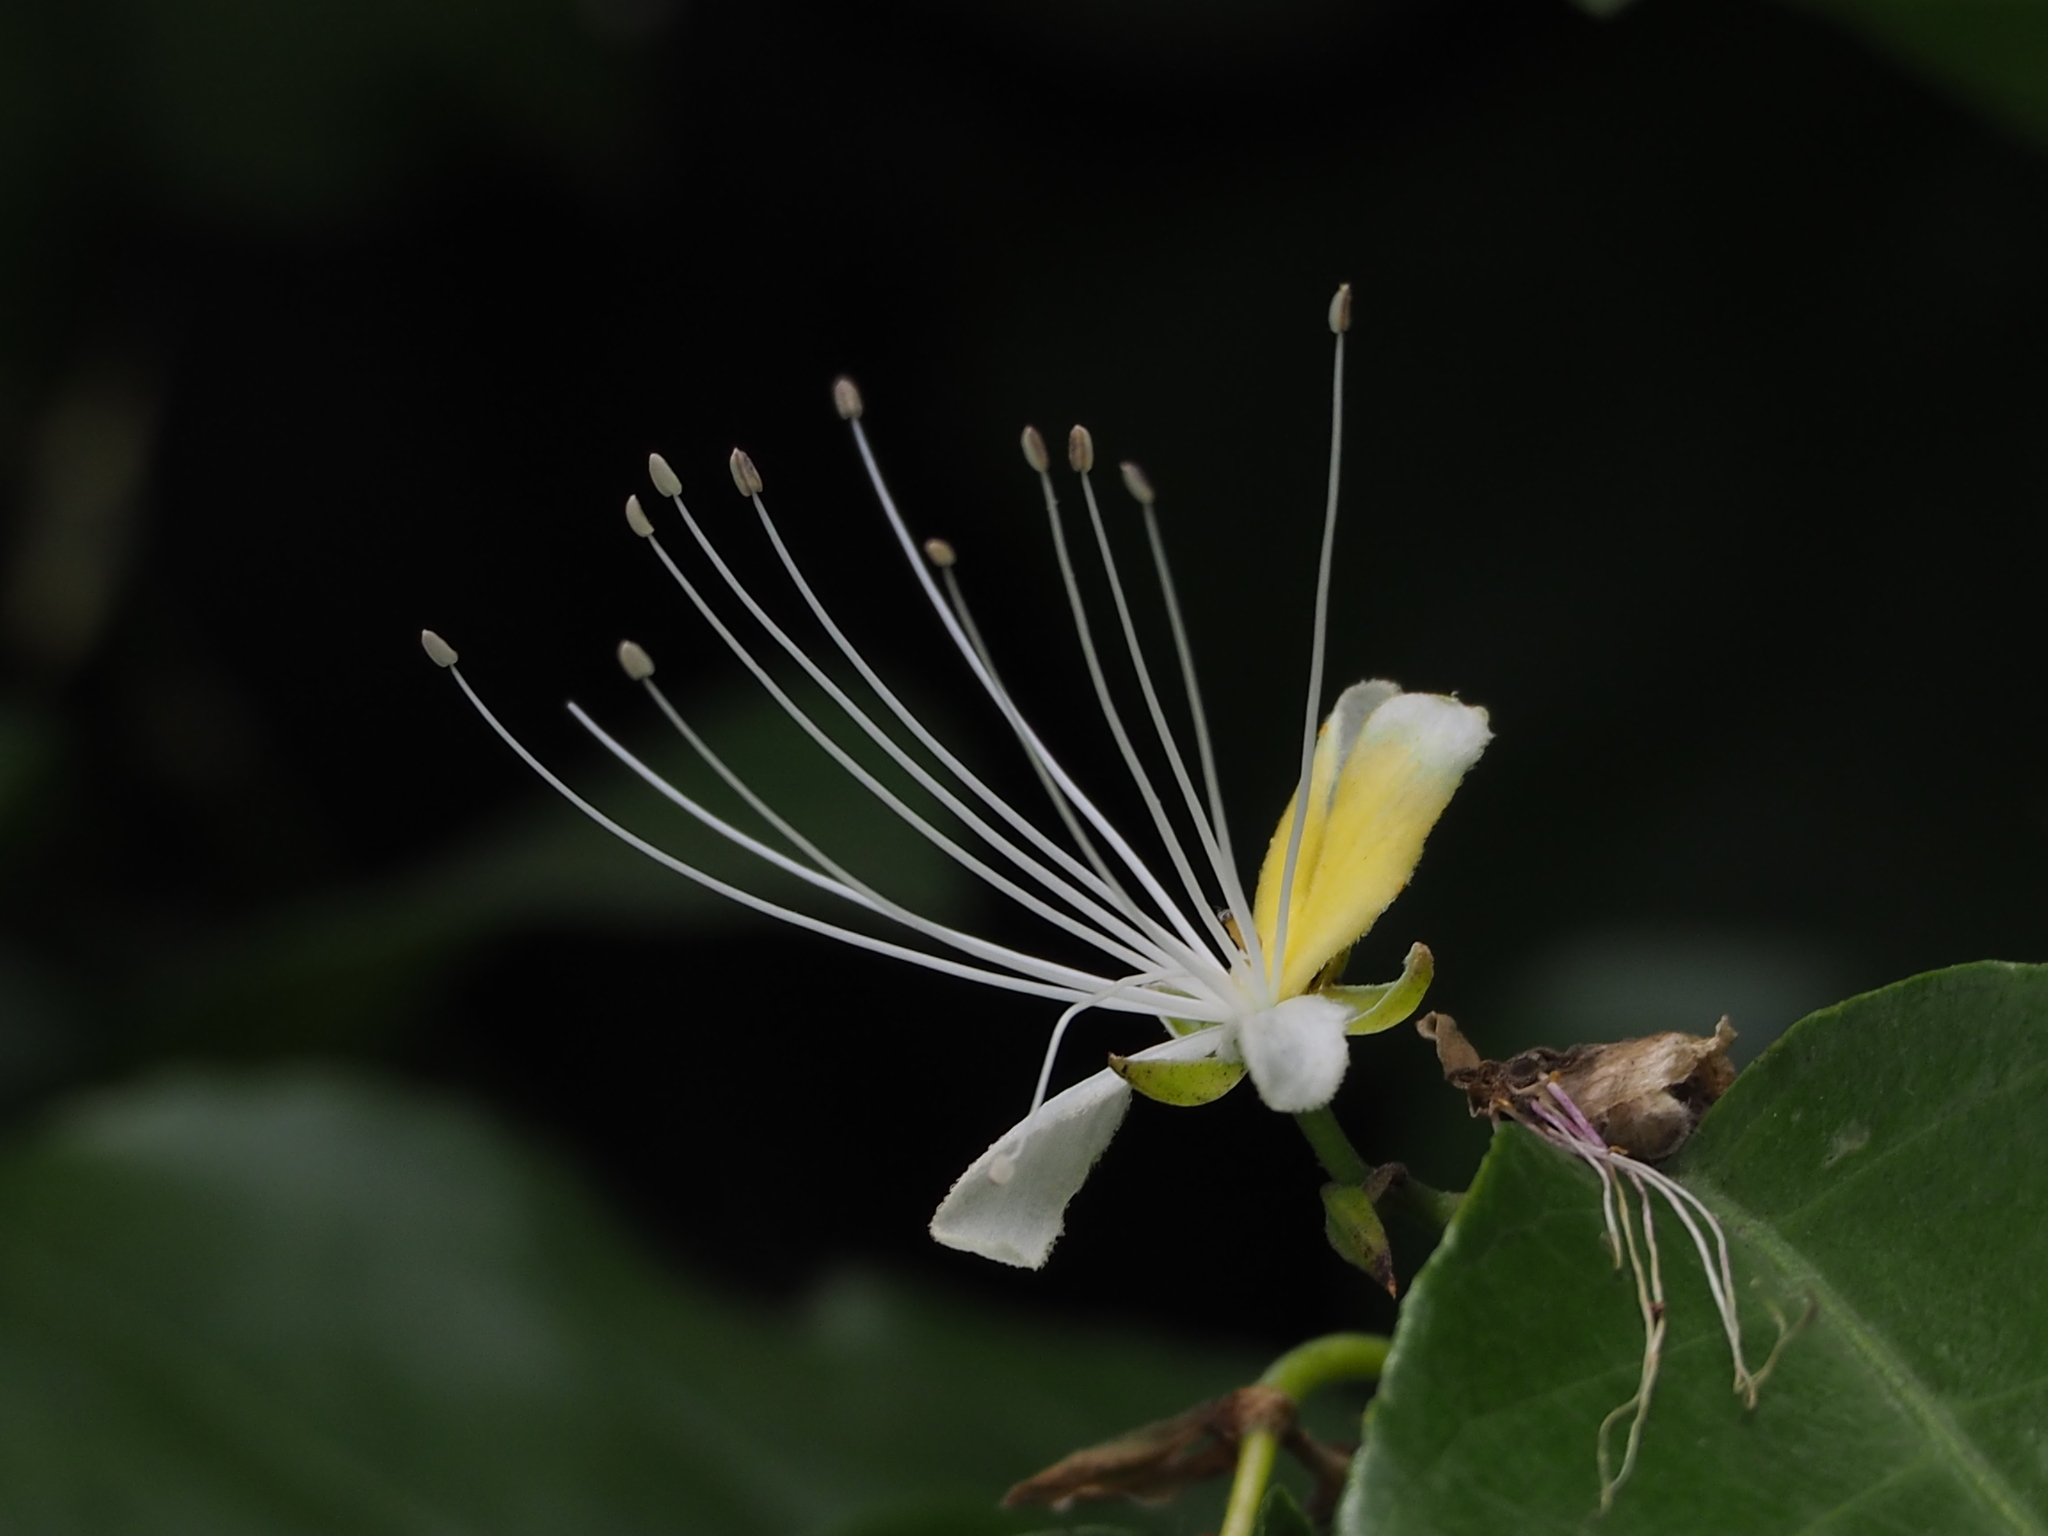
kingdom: Plantae
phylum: Tracheophyta
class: Magnoliopsida
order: Brassicales
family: Capparaceae
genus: Capparis
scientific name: Capparis henryi
